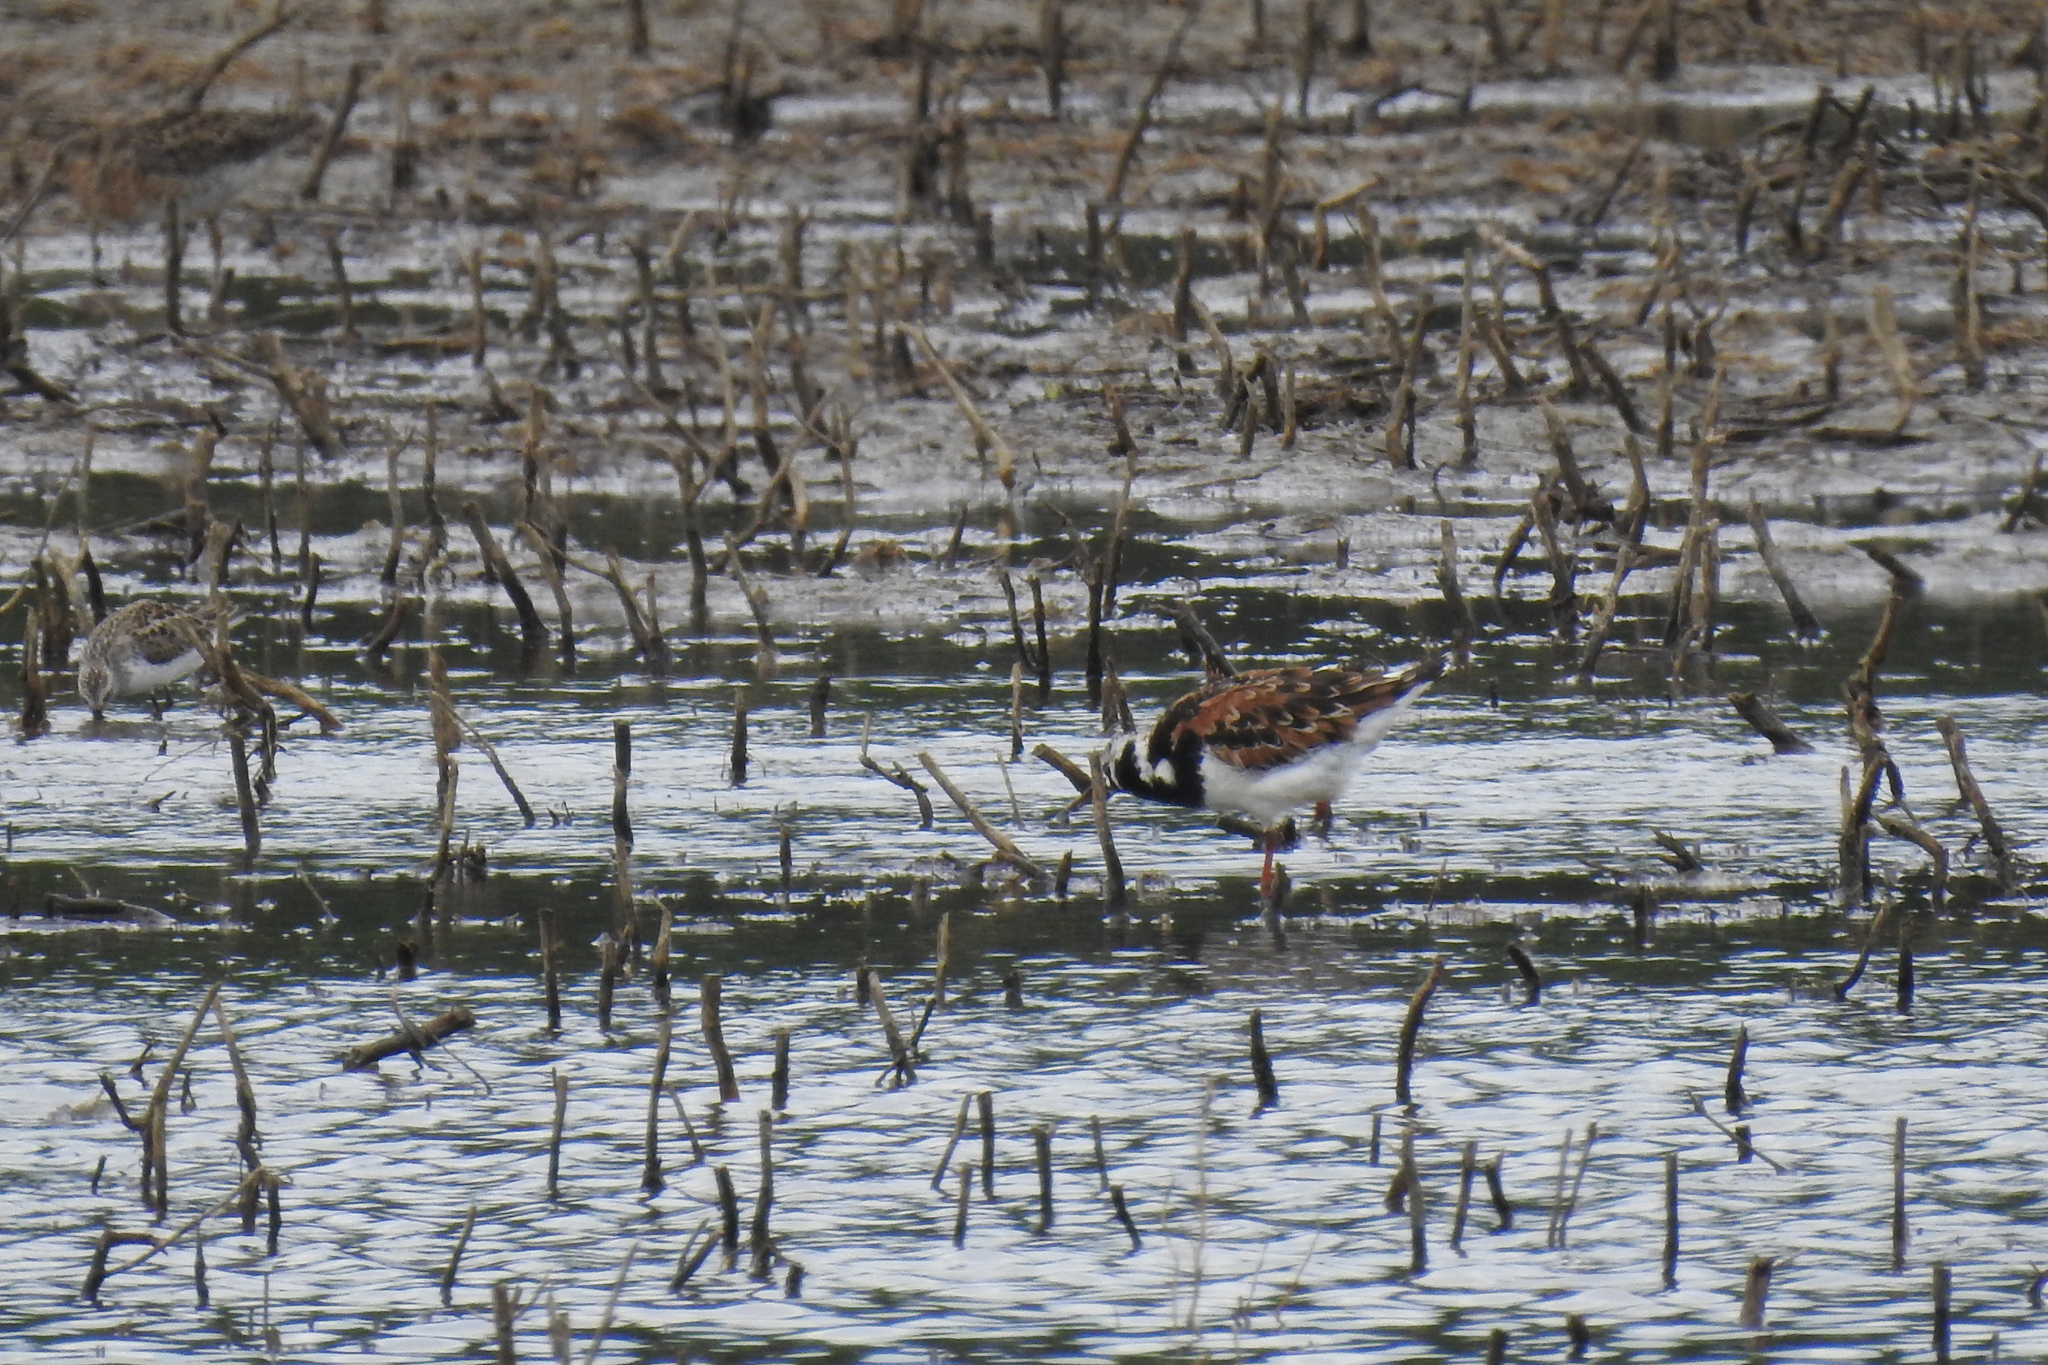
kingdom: Animalia
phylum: Chordata
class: Aves
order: Charadriiformes
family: Scolopacidae
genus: Arenaria
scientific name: Arenaria interpres
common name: Ruddy turnstone
